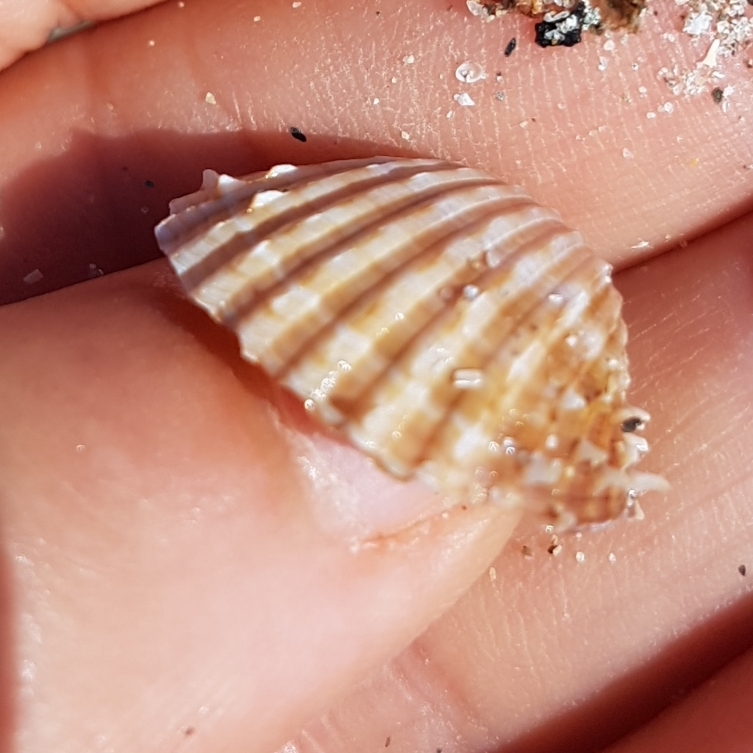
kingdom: Animalia
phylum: Mollusca
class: Bivalvia
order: Cardiida
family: Cardiidae
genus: Acanthocardia
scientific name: Acanthocardia aculeata
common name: Spiny cockle
